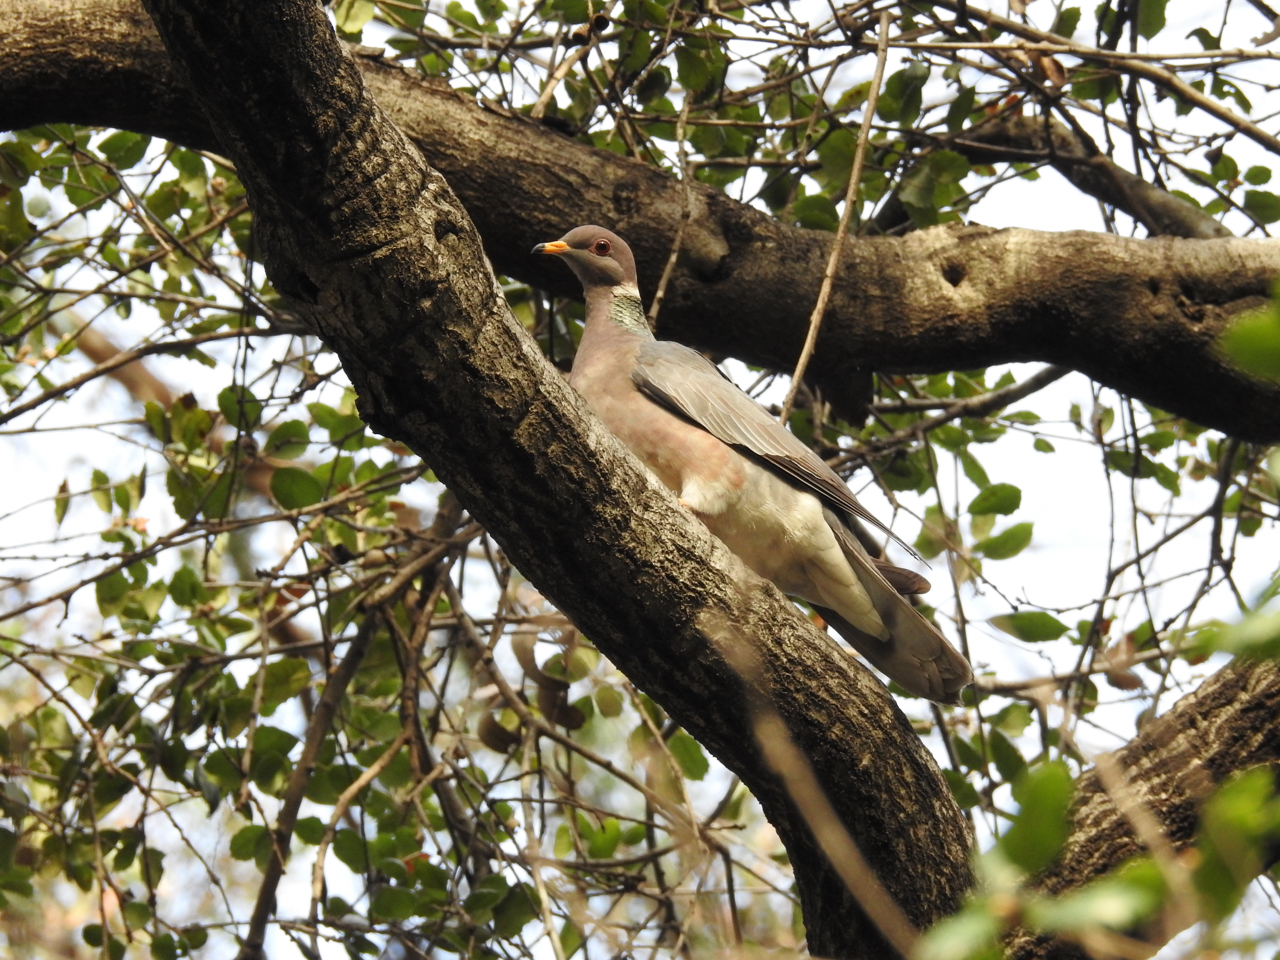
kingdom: Animalia
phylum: Chordata
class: Aves
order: Columbiformes
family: Columbidae
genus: Patagioenas
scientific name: Patagioenas fasciata
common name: Band-tailed pigeon
